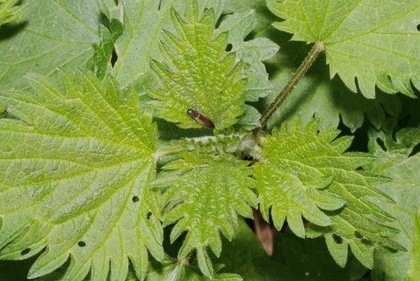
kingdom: Animalia
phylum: Arthropoda
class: Insecta
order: Coleoptera
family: Elateridae
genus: Dalopius
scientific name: Dalopius marginatus
